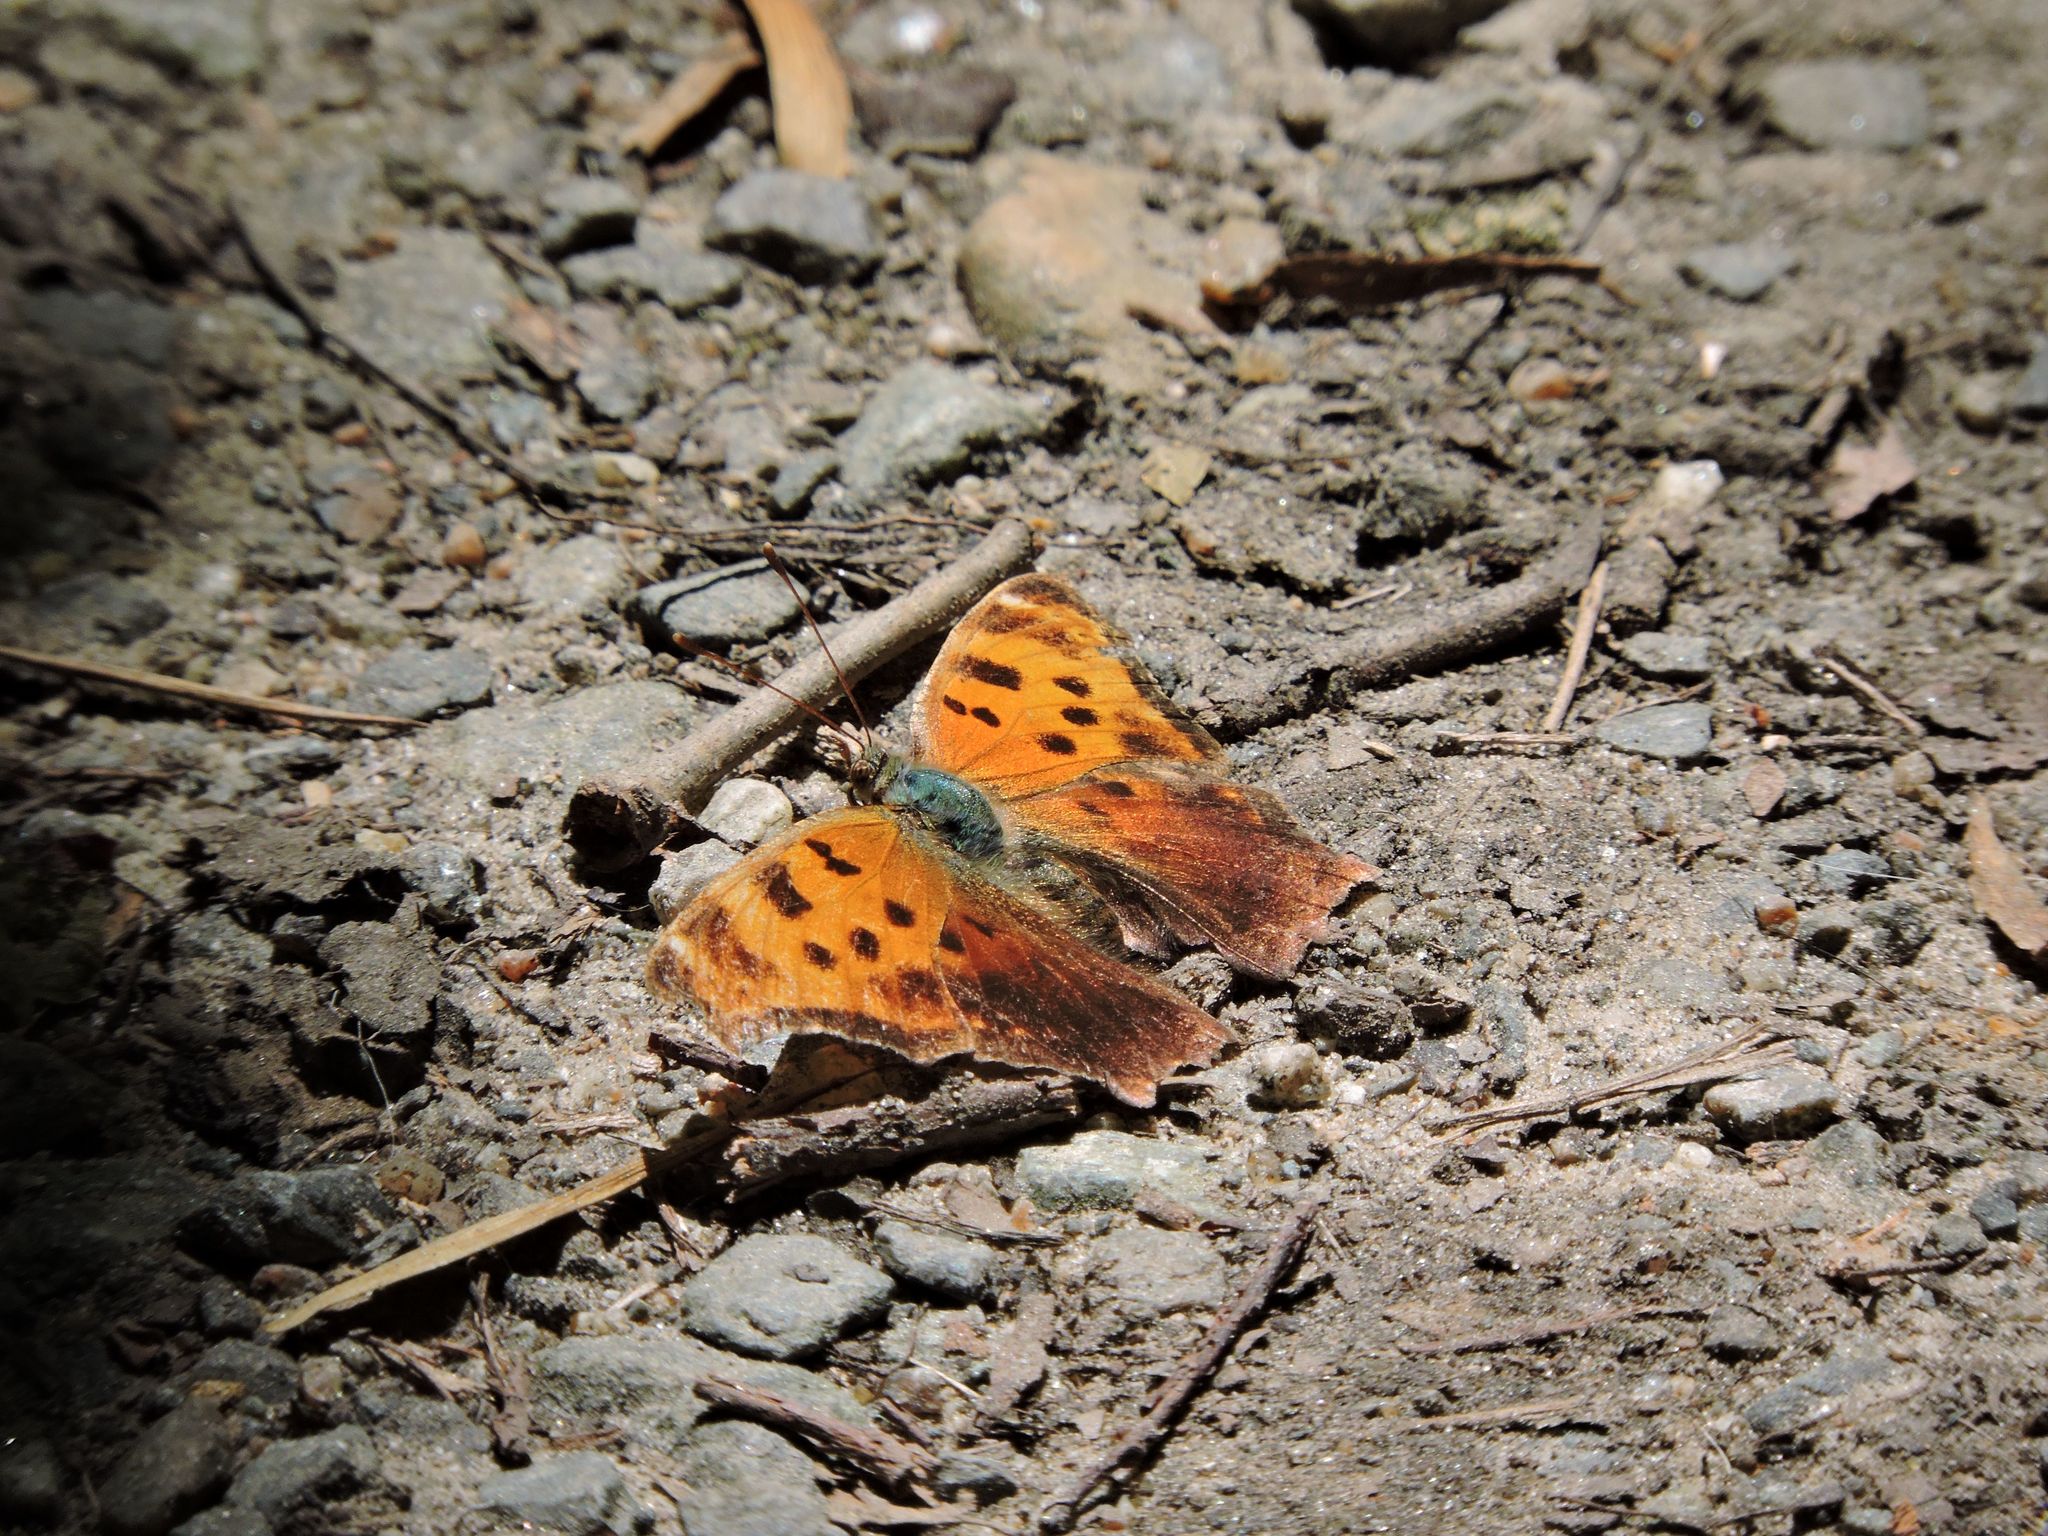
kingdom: Animalia
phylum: Arthropoda
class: Insecta
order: Lepidoptera
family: Nymphalidae
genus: Polygonia
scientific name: Polygonia comma
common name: Eastern comma
